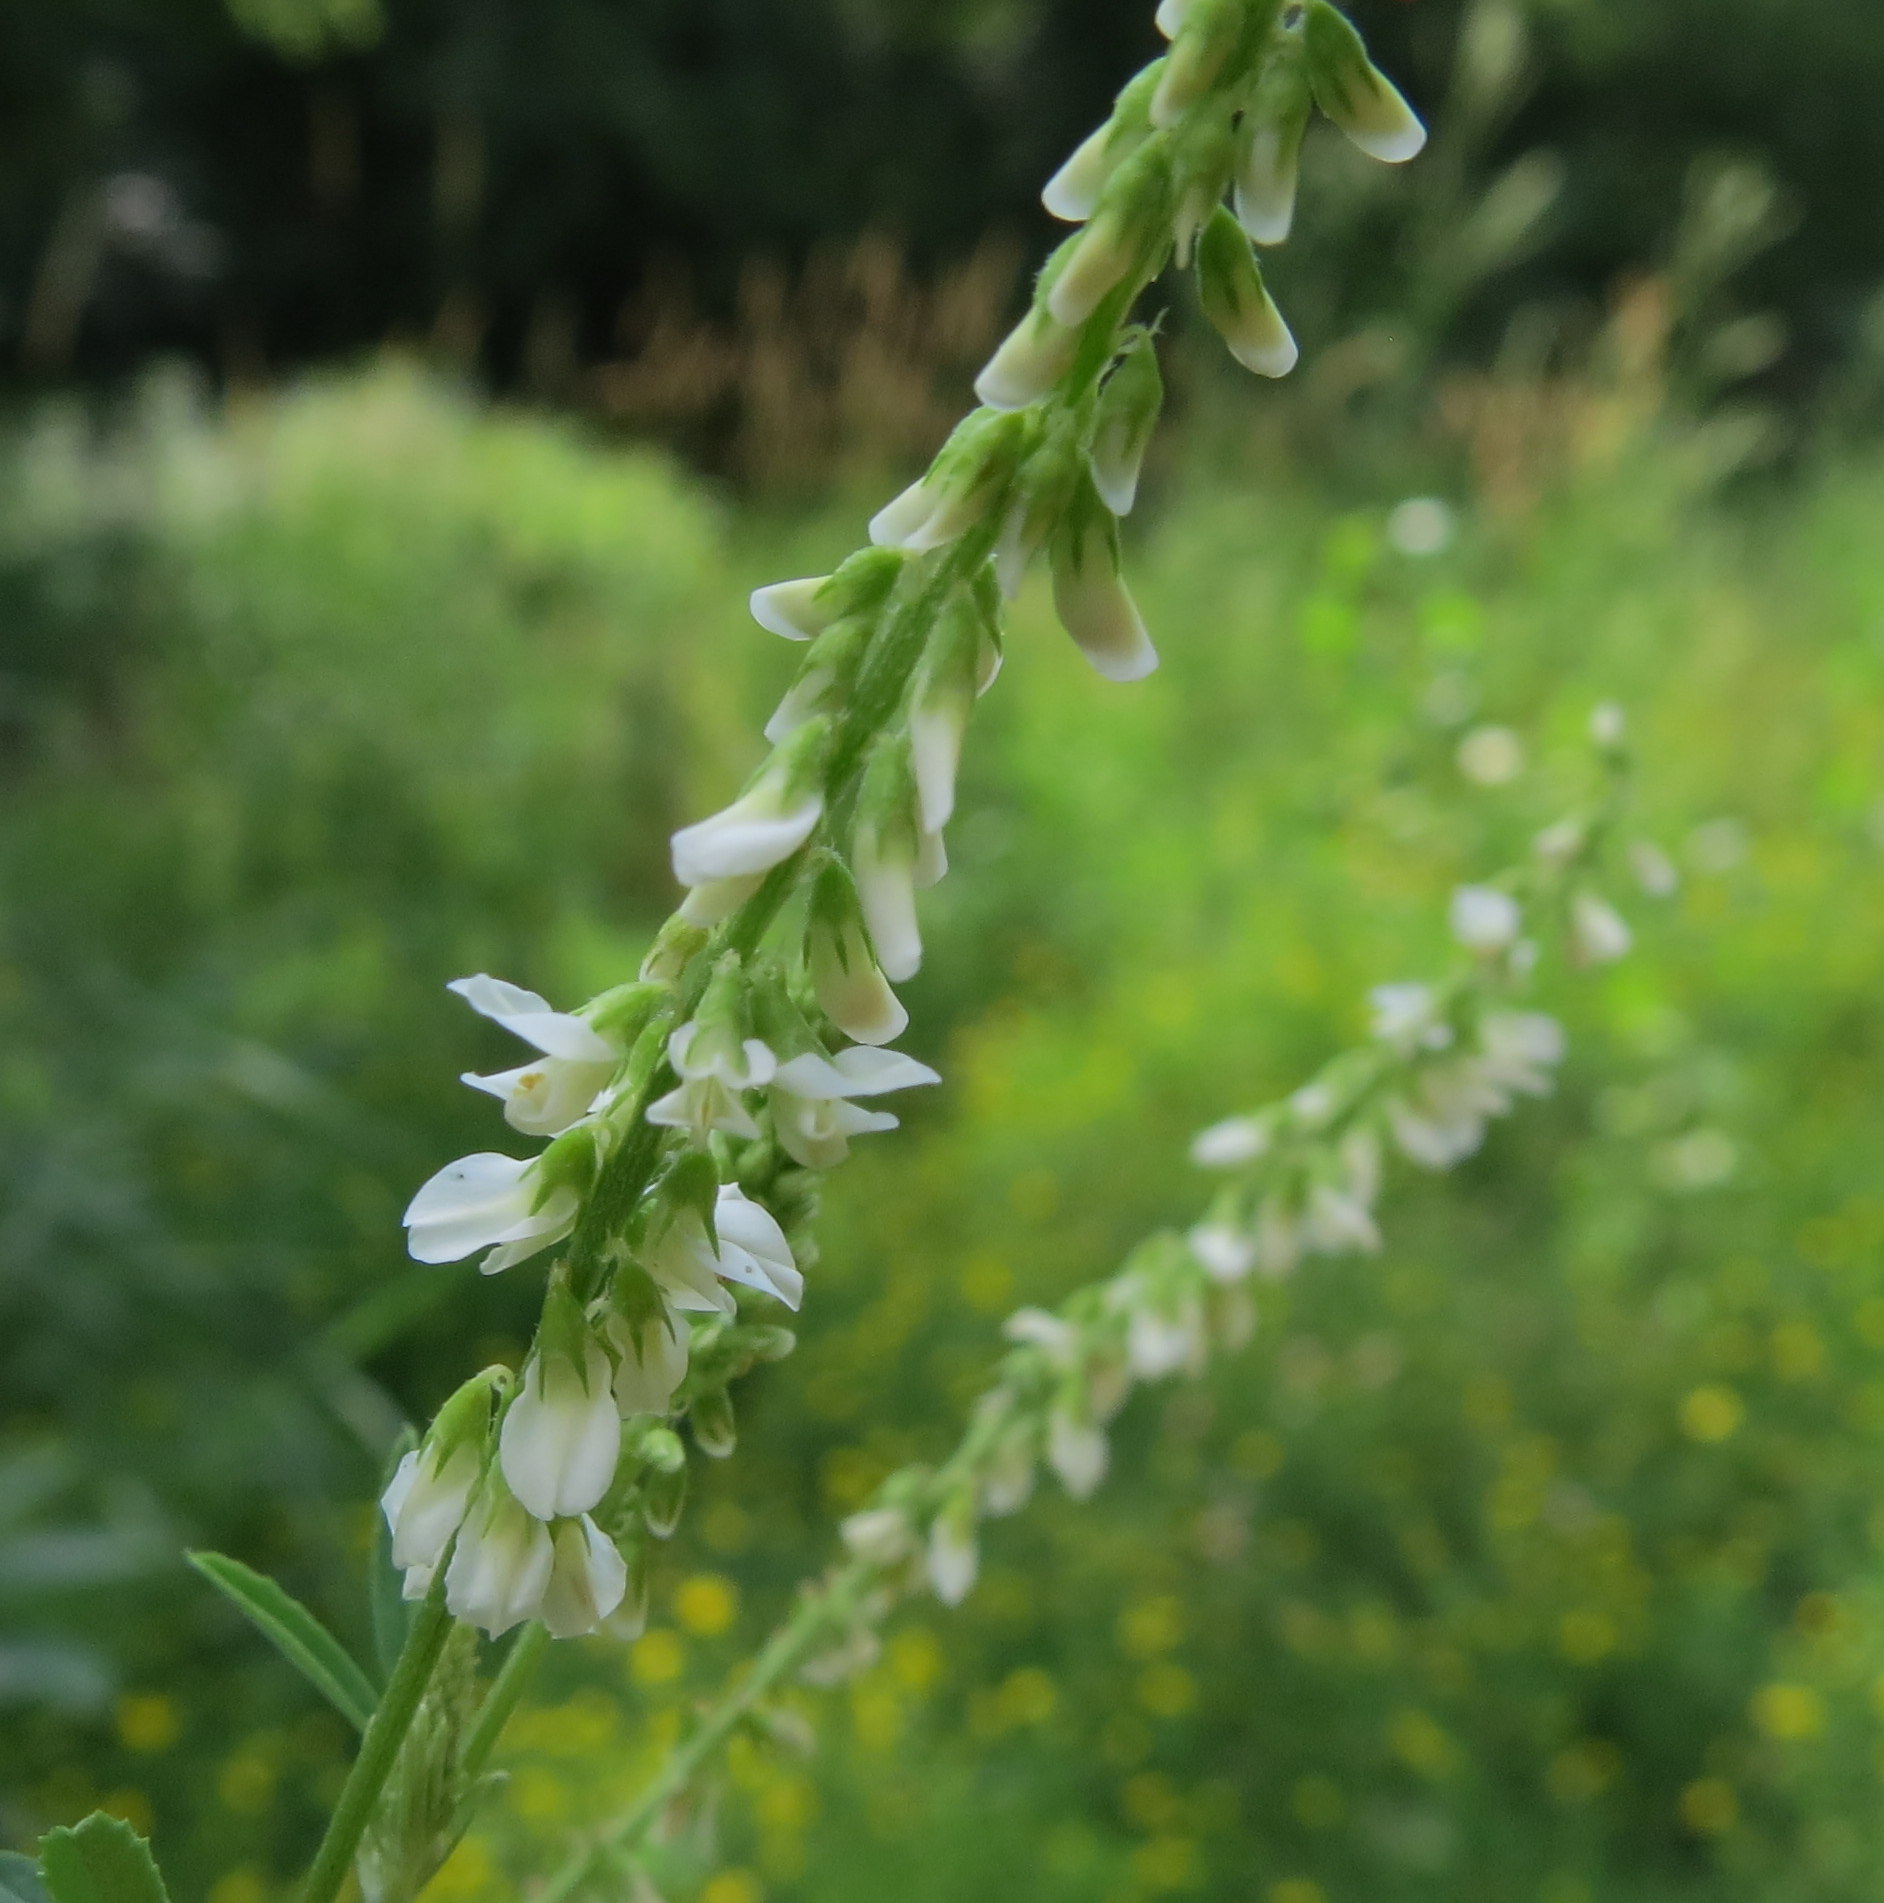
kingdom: Plantae
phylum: Tracheophyta
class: Magnoliopsida
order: Fabales
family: Fabaceae
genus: Melilotus
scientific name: Melilotus albus
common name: White melilot
